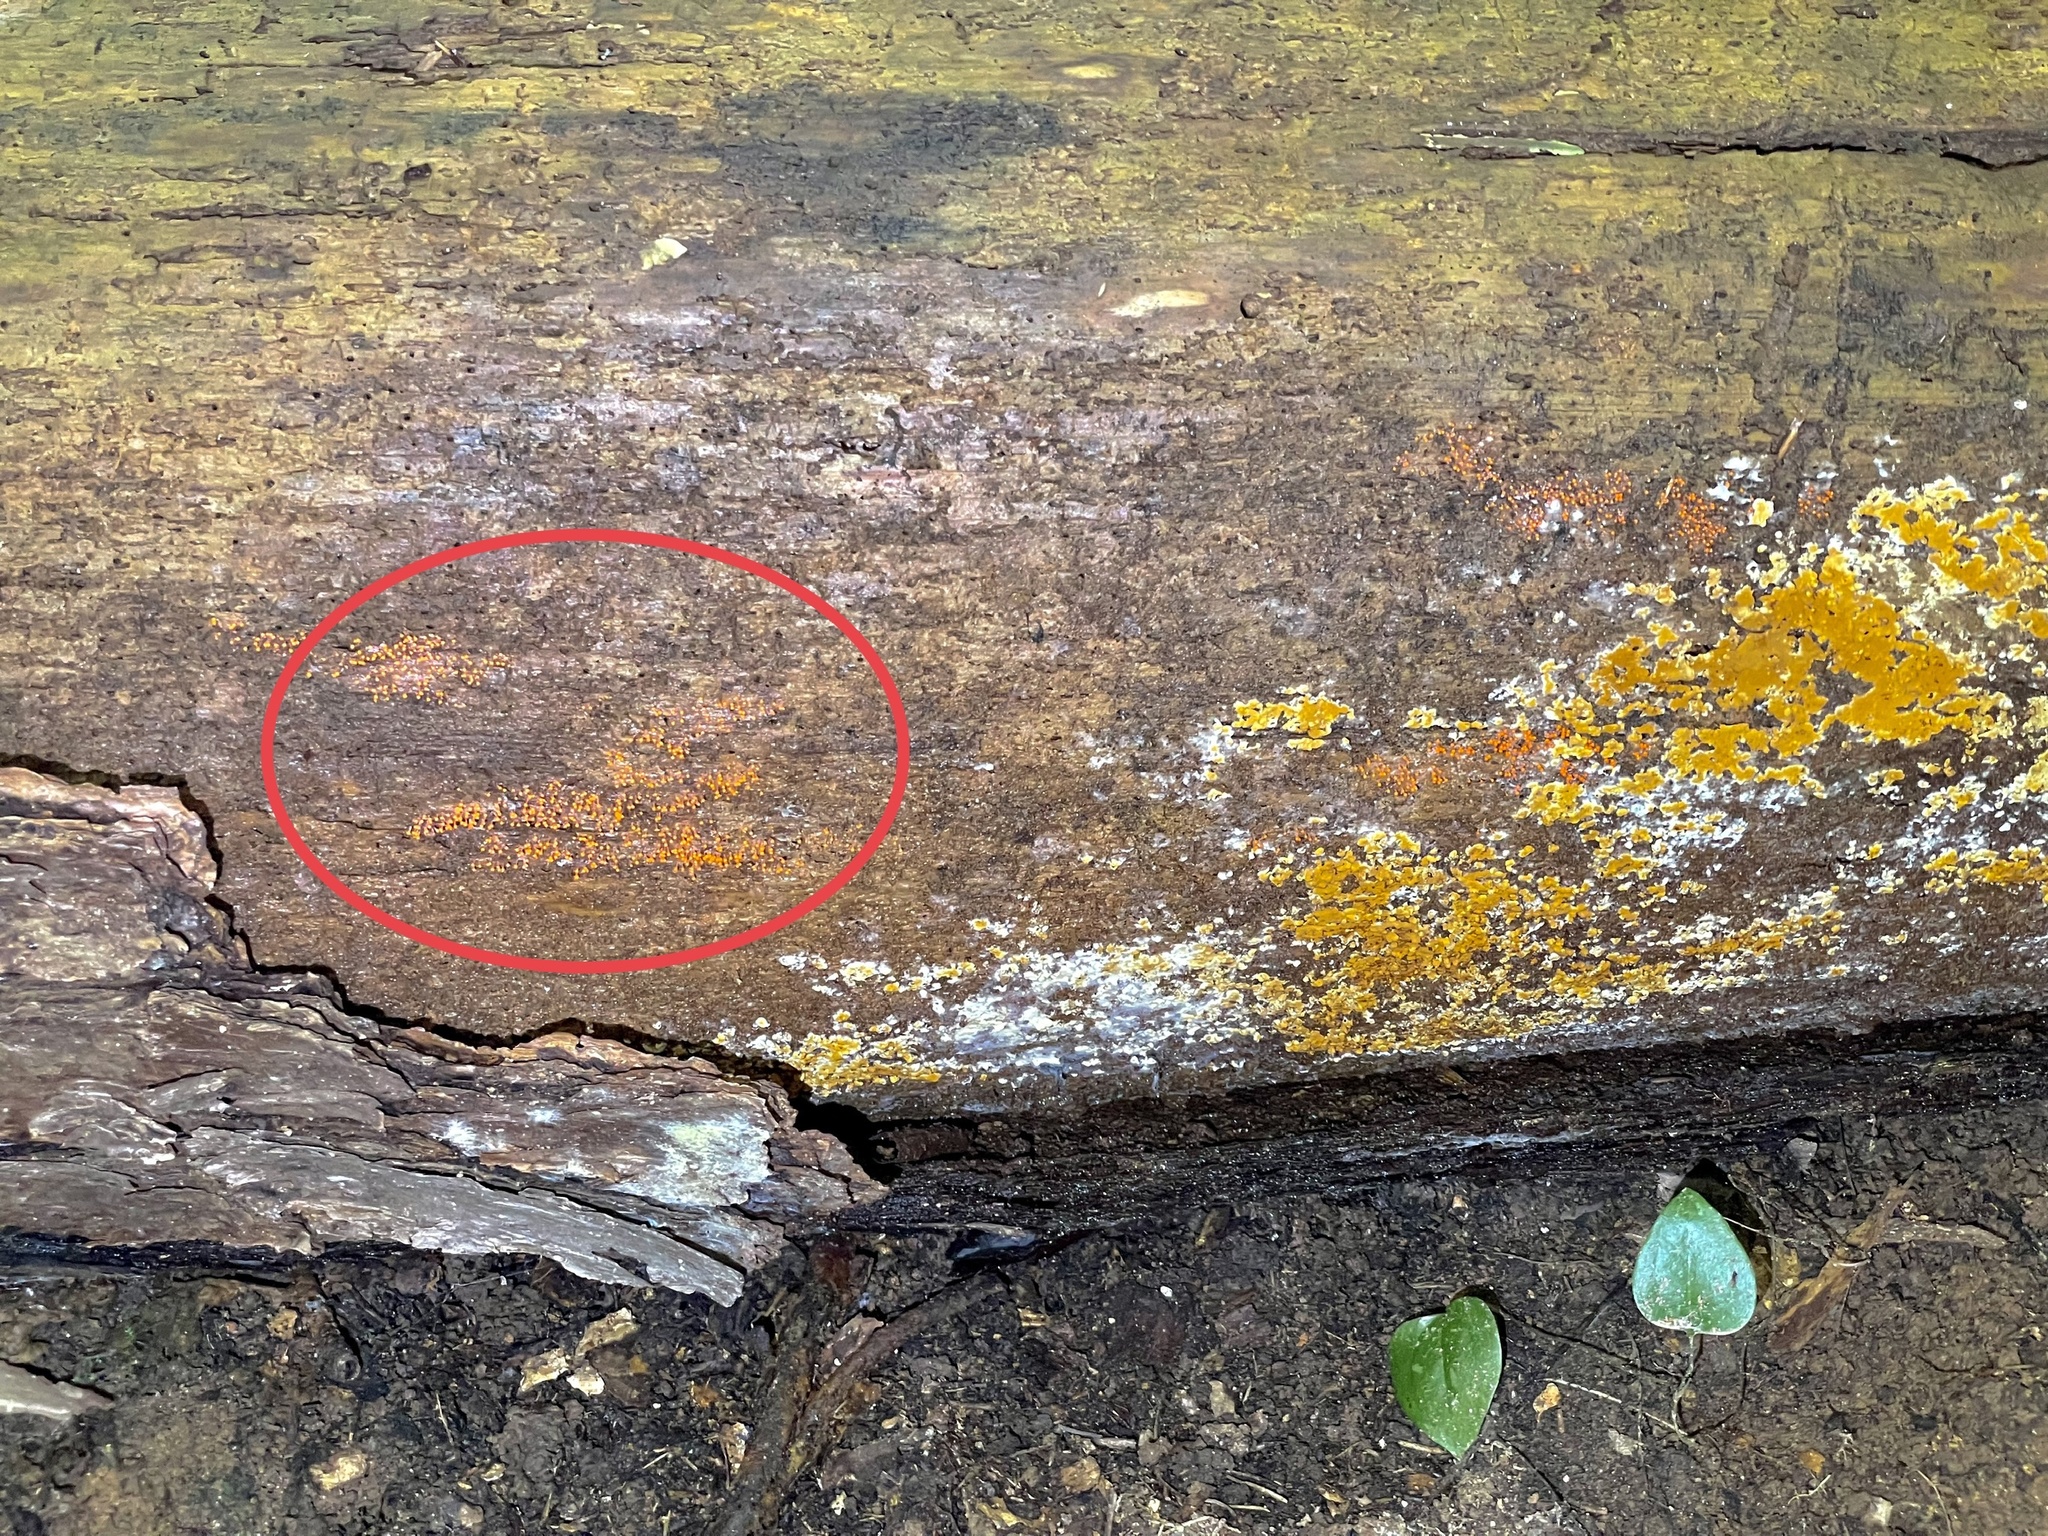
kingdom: Protozoa
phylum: Mycetozoa
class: Myxomycetes
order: Trichiales
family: Arcyriaceae
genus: Hemitrichia
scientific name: Hemitrichia decipiens
